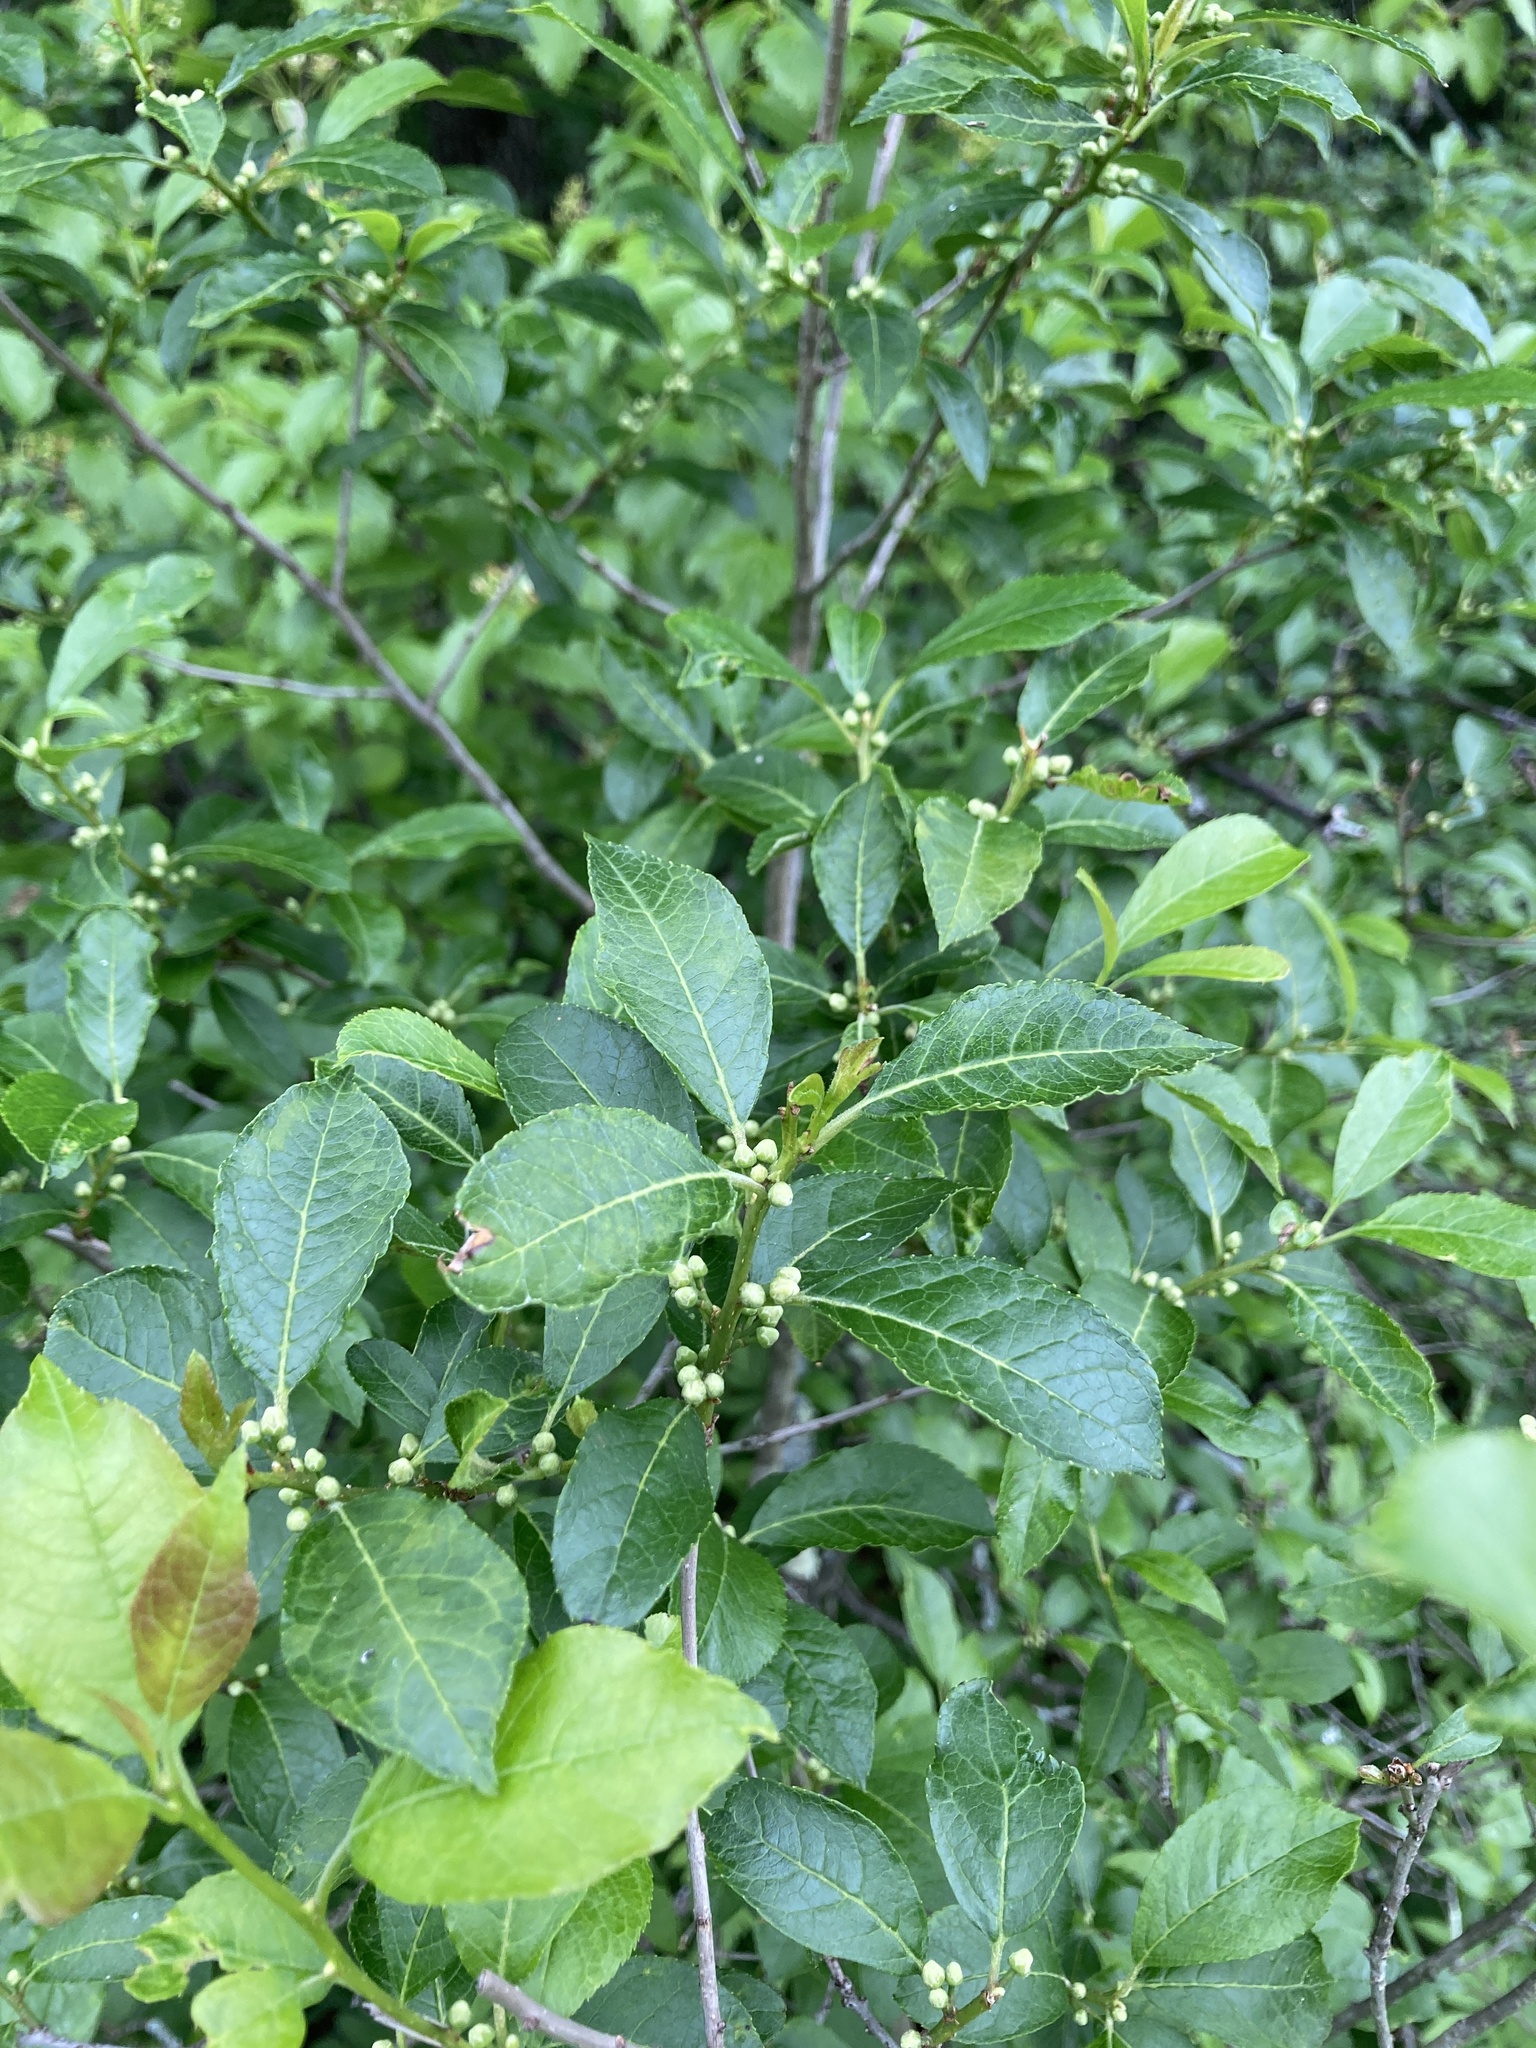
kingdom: Plantae
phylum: Tracheophyta
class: Magnoliopsida
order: Aquifoliales
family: Aquifoliaceae
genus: Ilex
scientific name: Ilex verticillata
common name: Virginia winterberry
